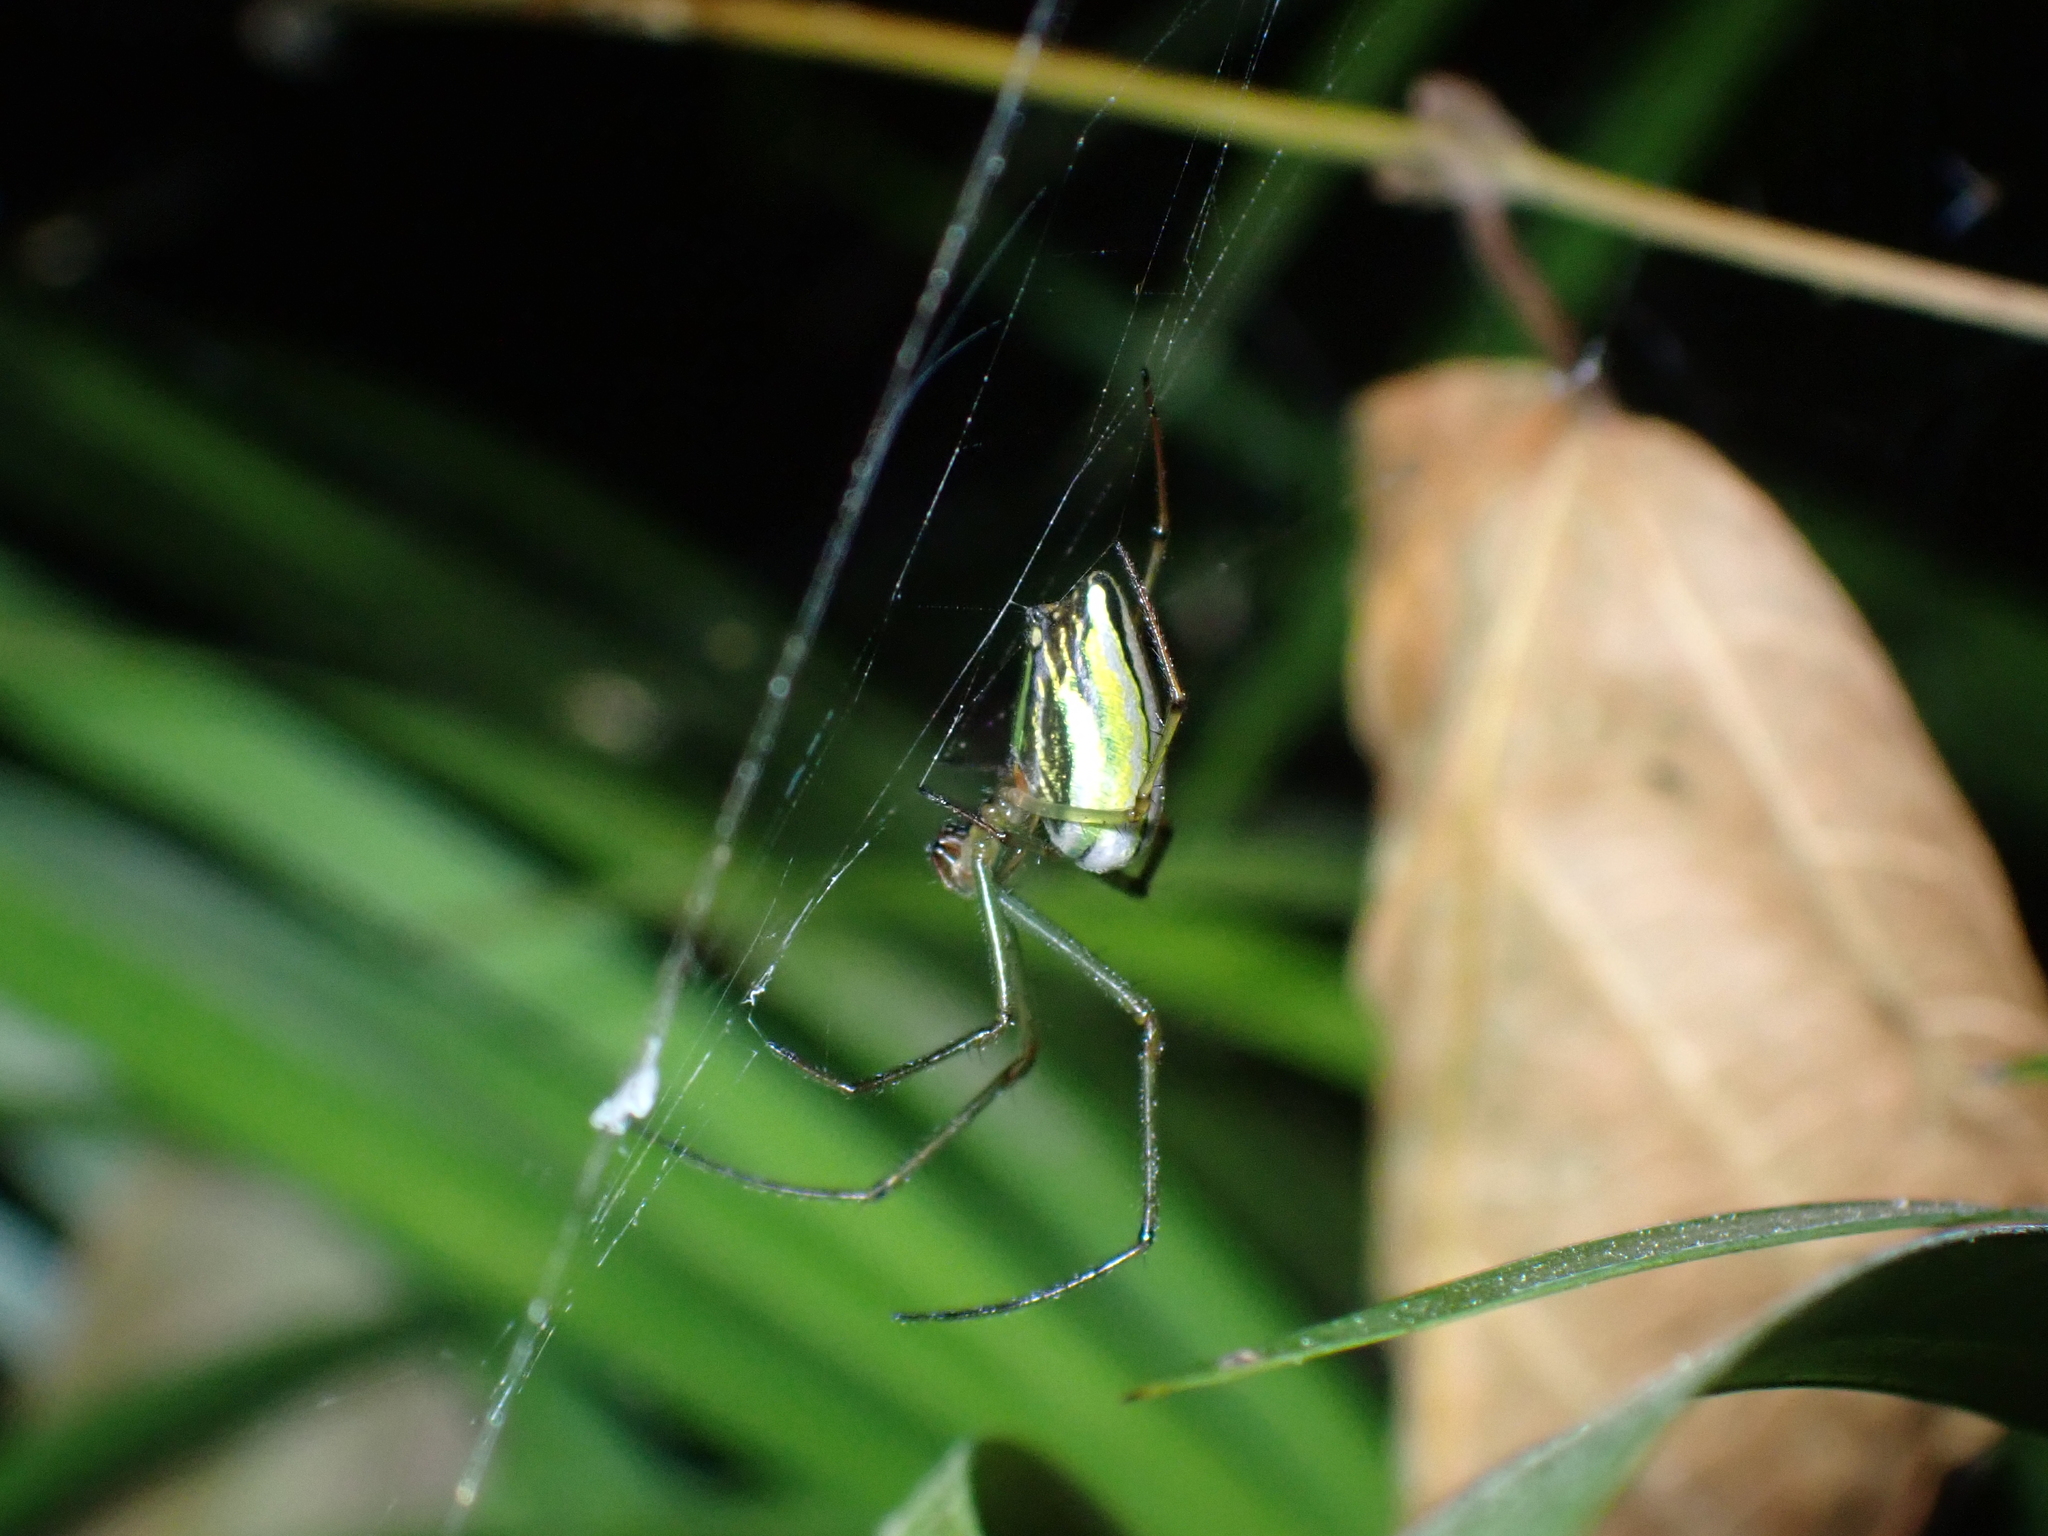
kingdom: Animalia
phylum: Arthropoda
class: Arachnida
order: Araneae
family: Tetragnathidae
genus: Leucauge
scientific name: Leucauge celebesiana
